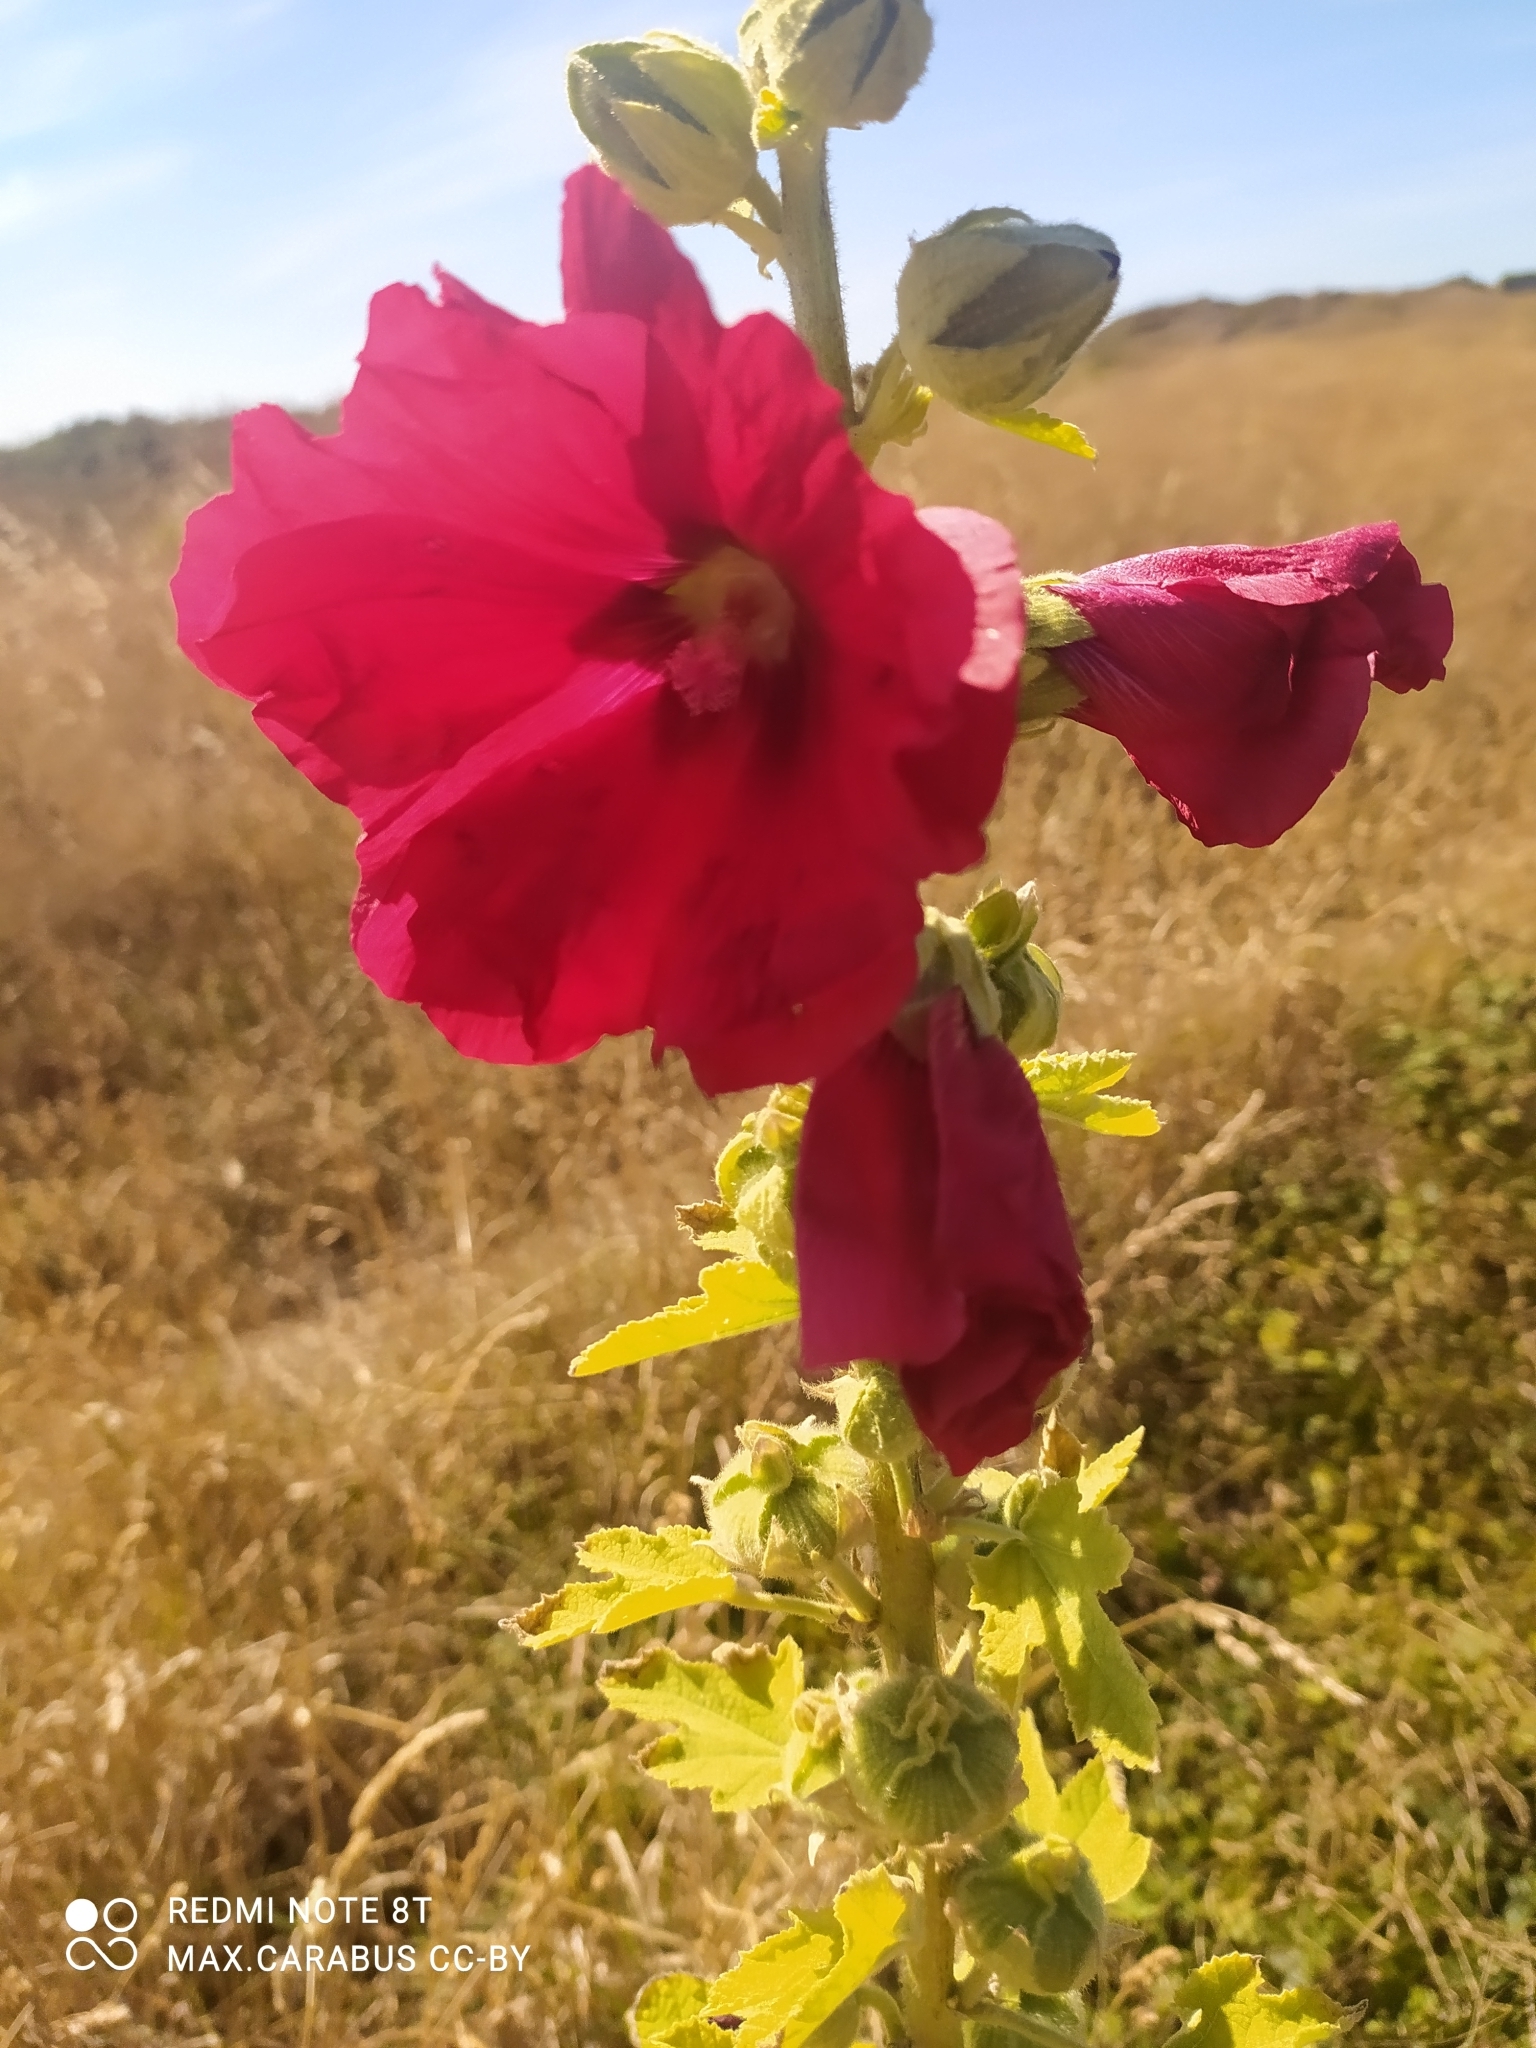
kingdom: Plantae
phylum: Tracheophyta
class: Magnoliopsida
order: Malvales
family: Malvaceae
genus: Alcea
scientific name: Alcea rosea
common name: Hollyhock
